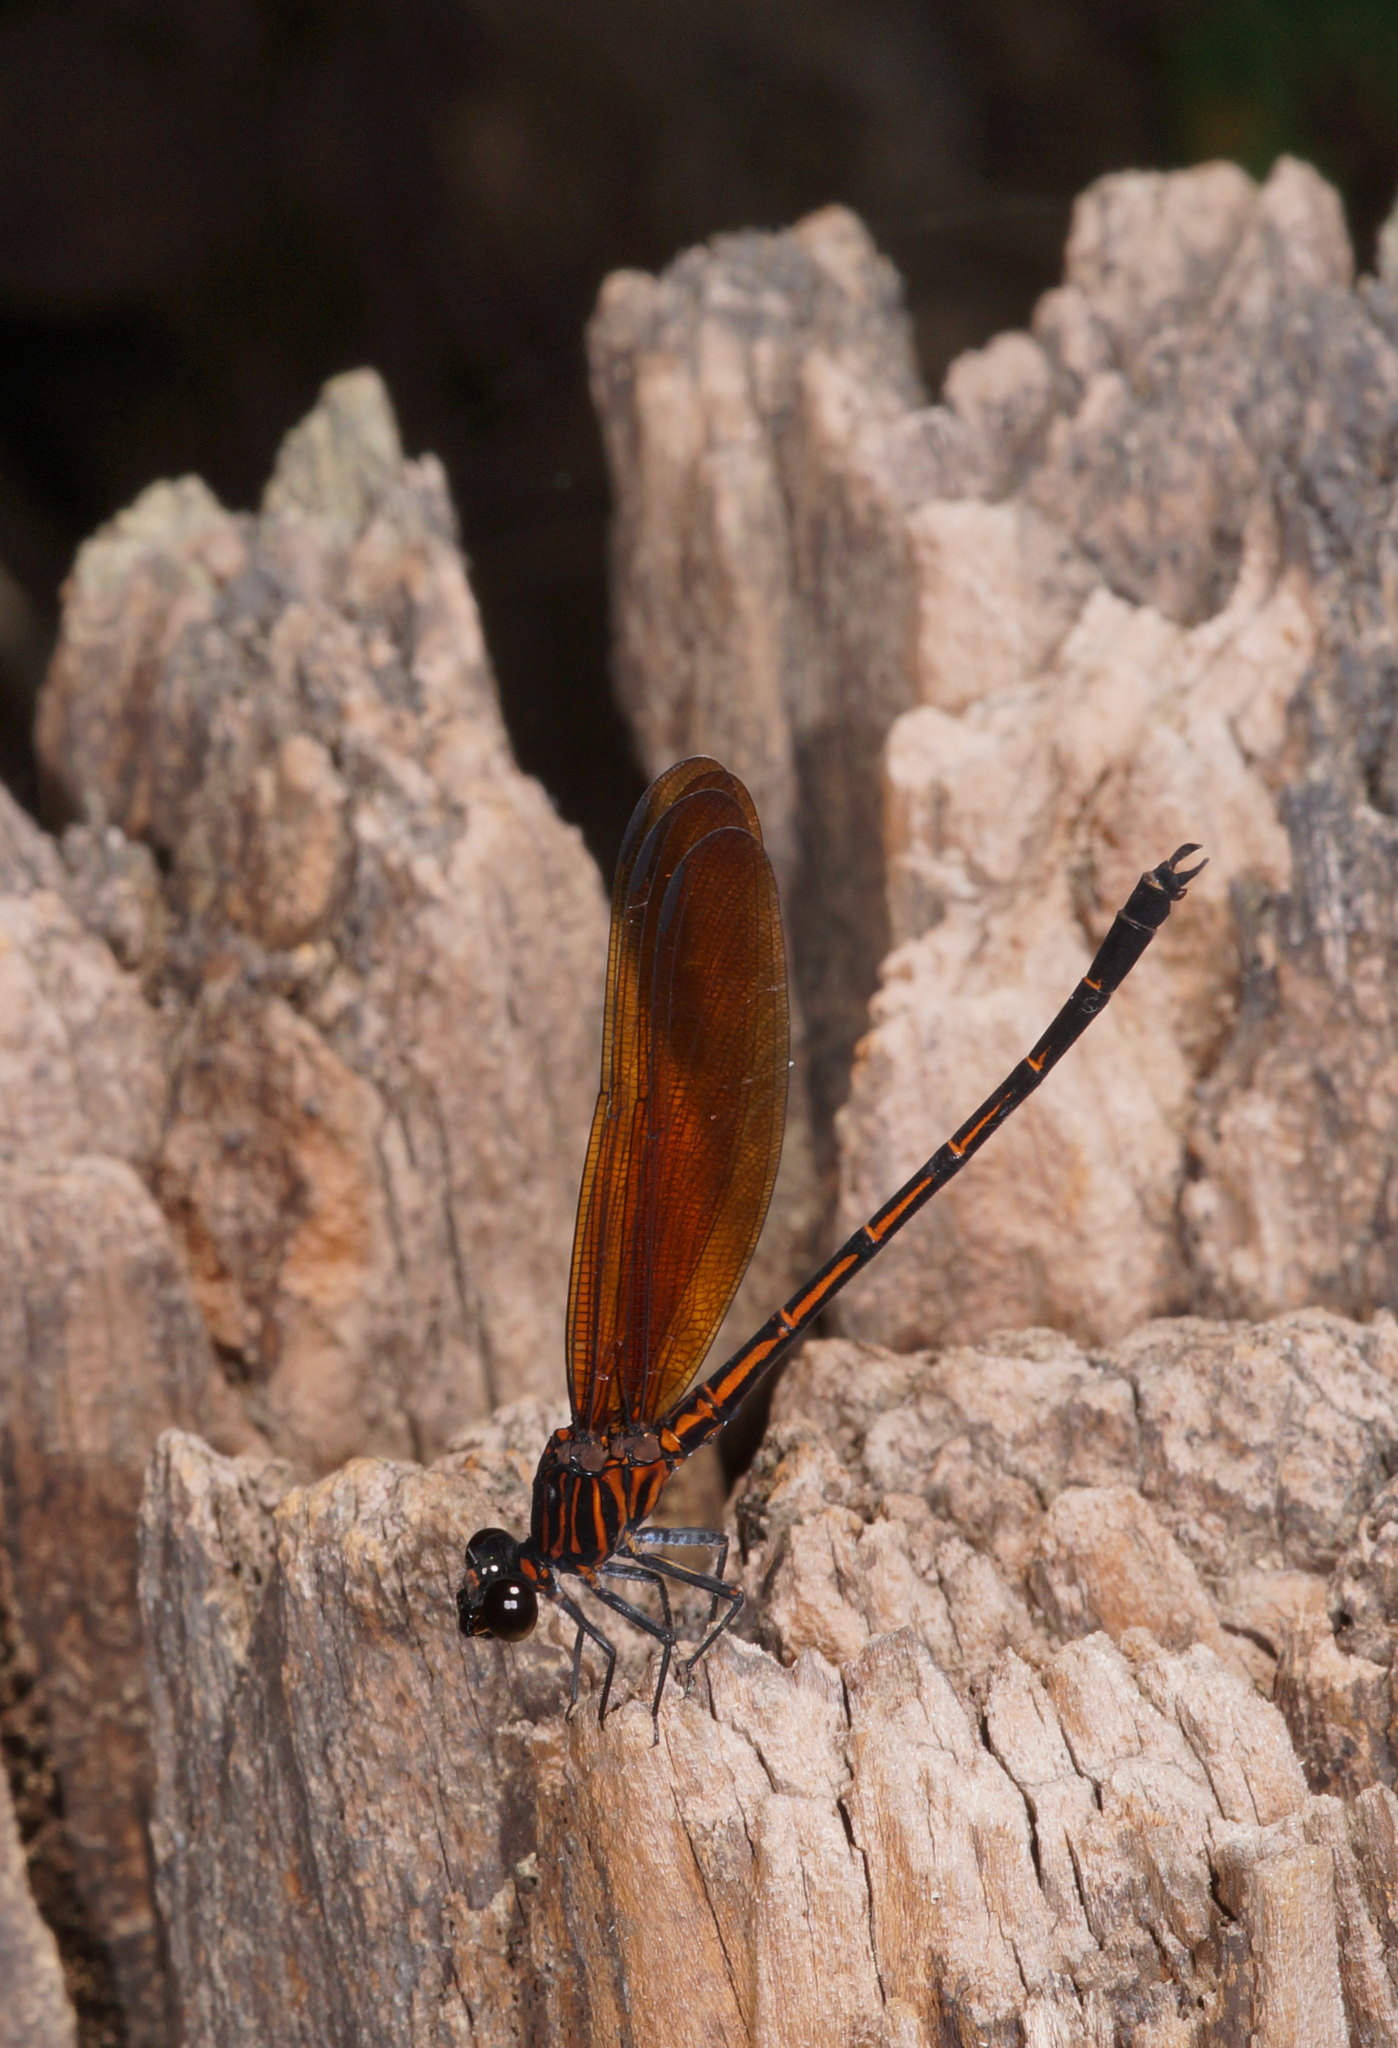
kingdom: Animalia
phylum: Arthropoda
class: Insecta
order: Odonata
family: Euphaeidae
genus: Dysphaea
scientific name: Dysphaea gloriosa
